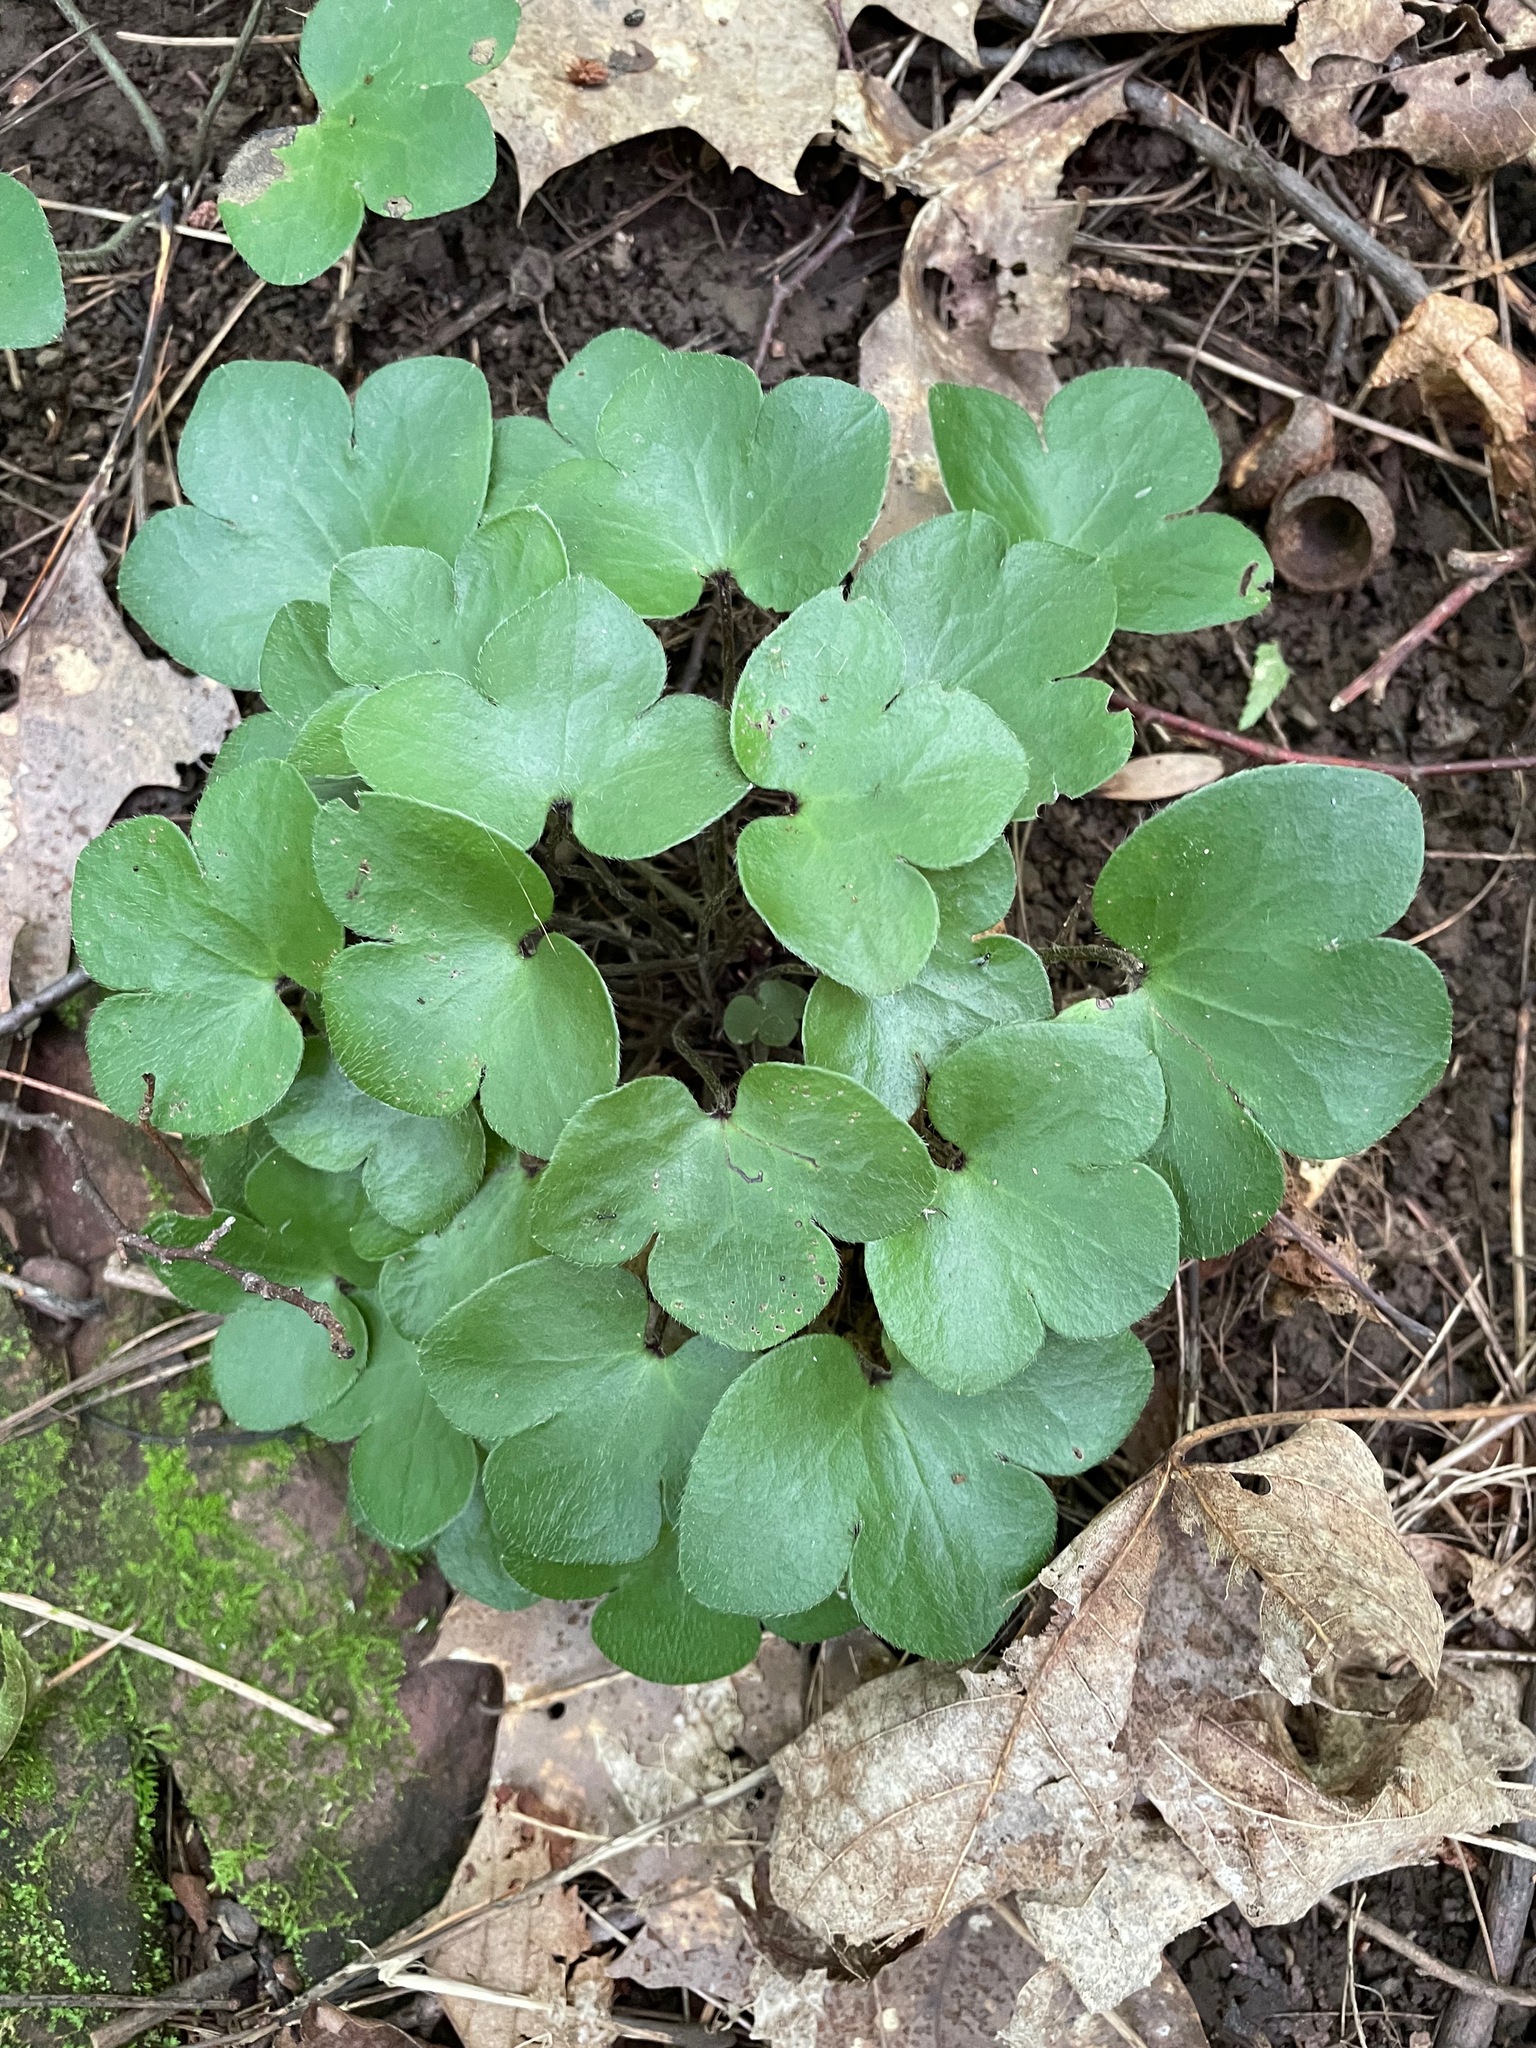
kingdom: Plantae
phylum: Tracheophyta
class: Magnoliopsida
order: Ranunculales
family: Ranunculaceae
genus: Hepatica
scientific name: Hepatica americana
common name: American hepatica
